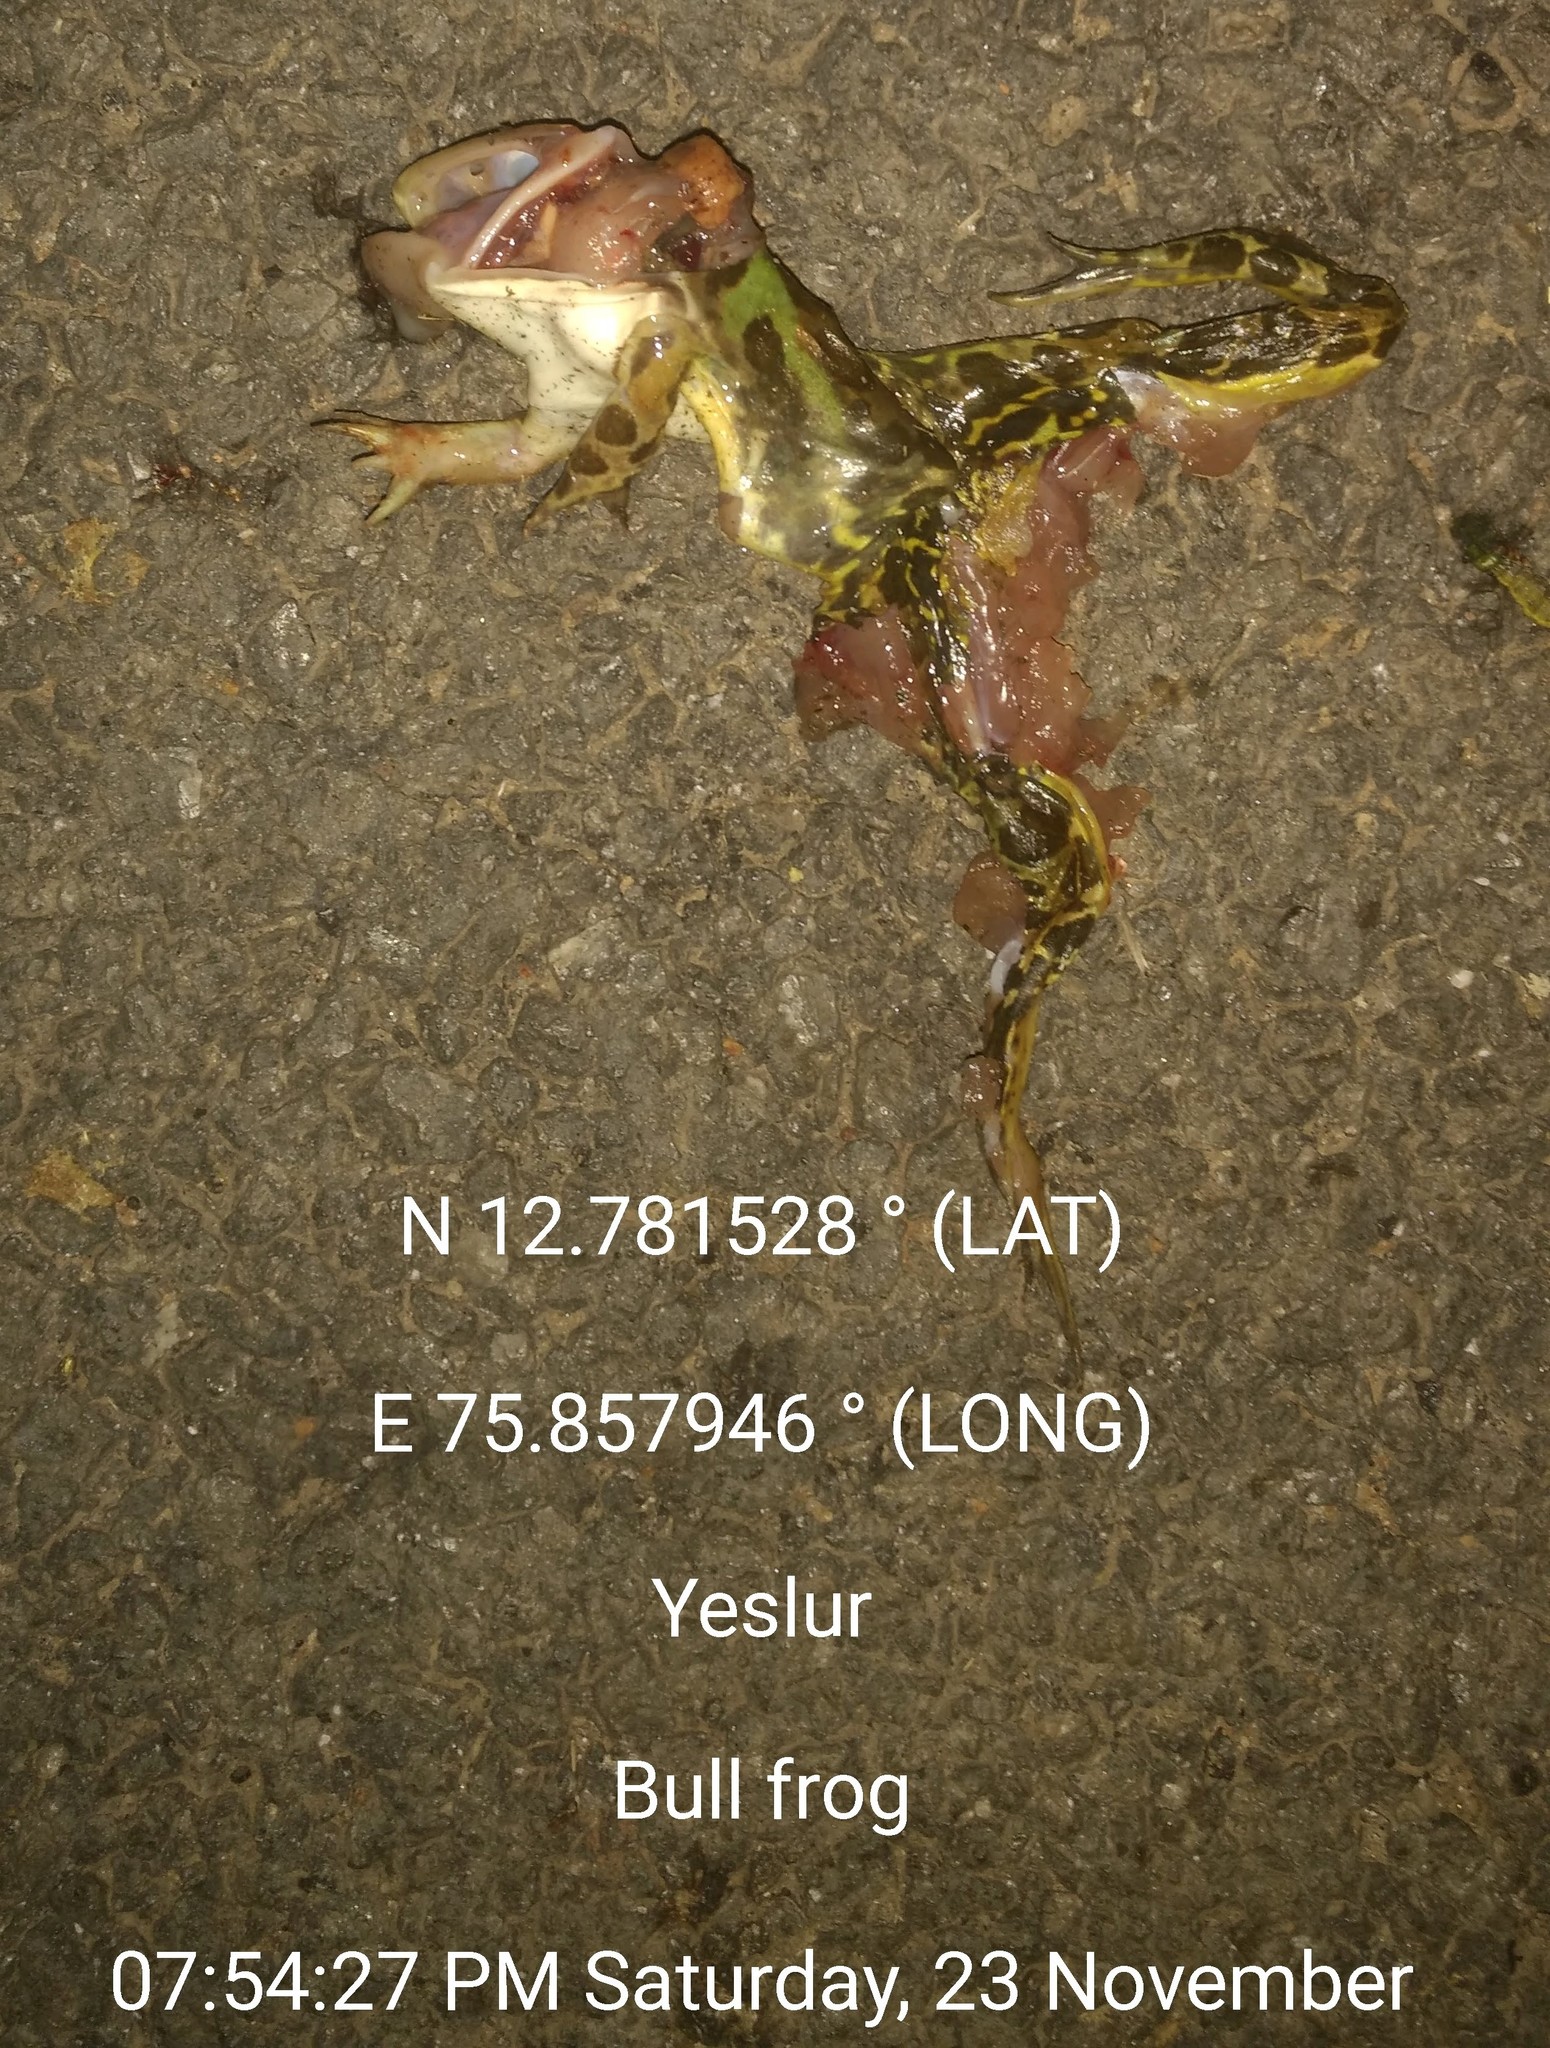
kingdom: Animalia
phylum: Chordata
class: Amphibia
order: Anura
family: Dicroglossidae
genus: Hoplobatrachus
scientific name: Hoplobatrachus tigerinus
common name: Indian bullfrog
